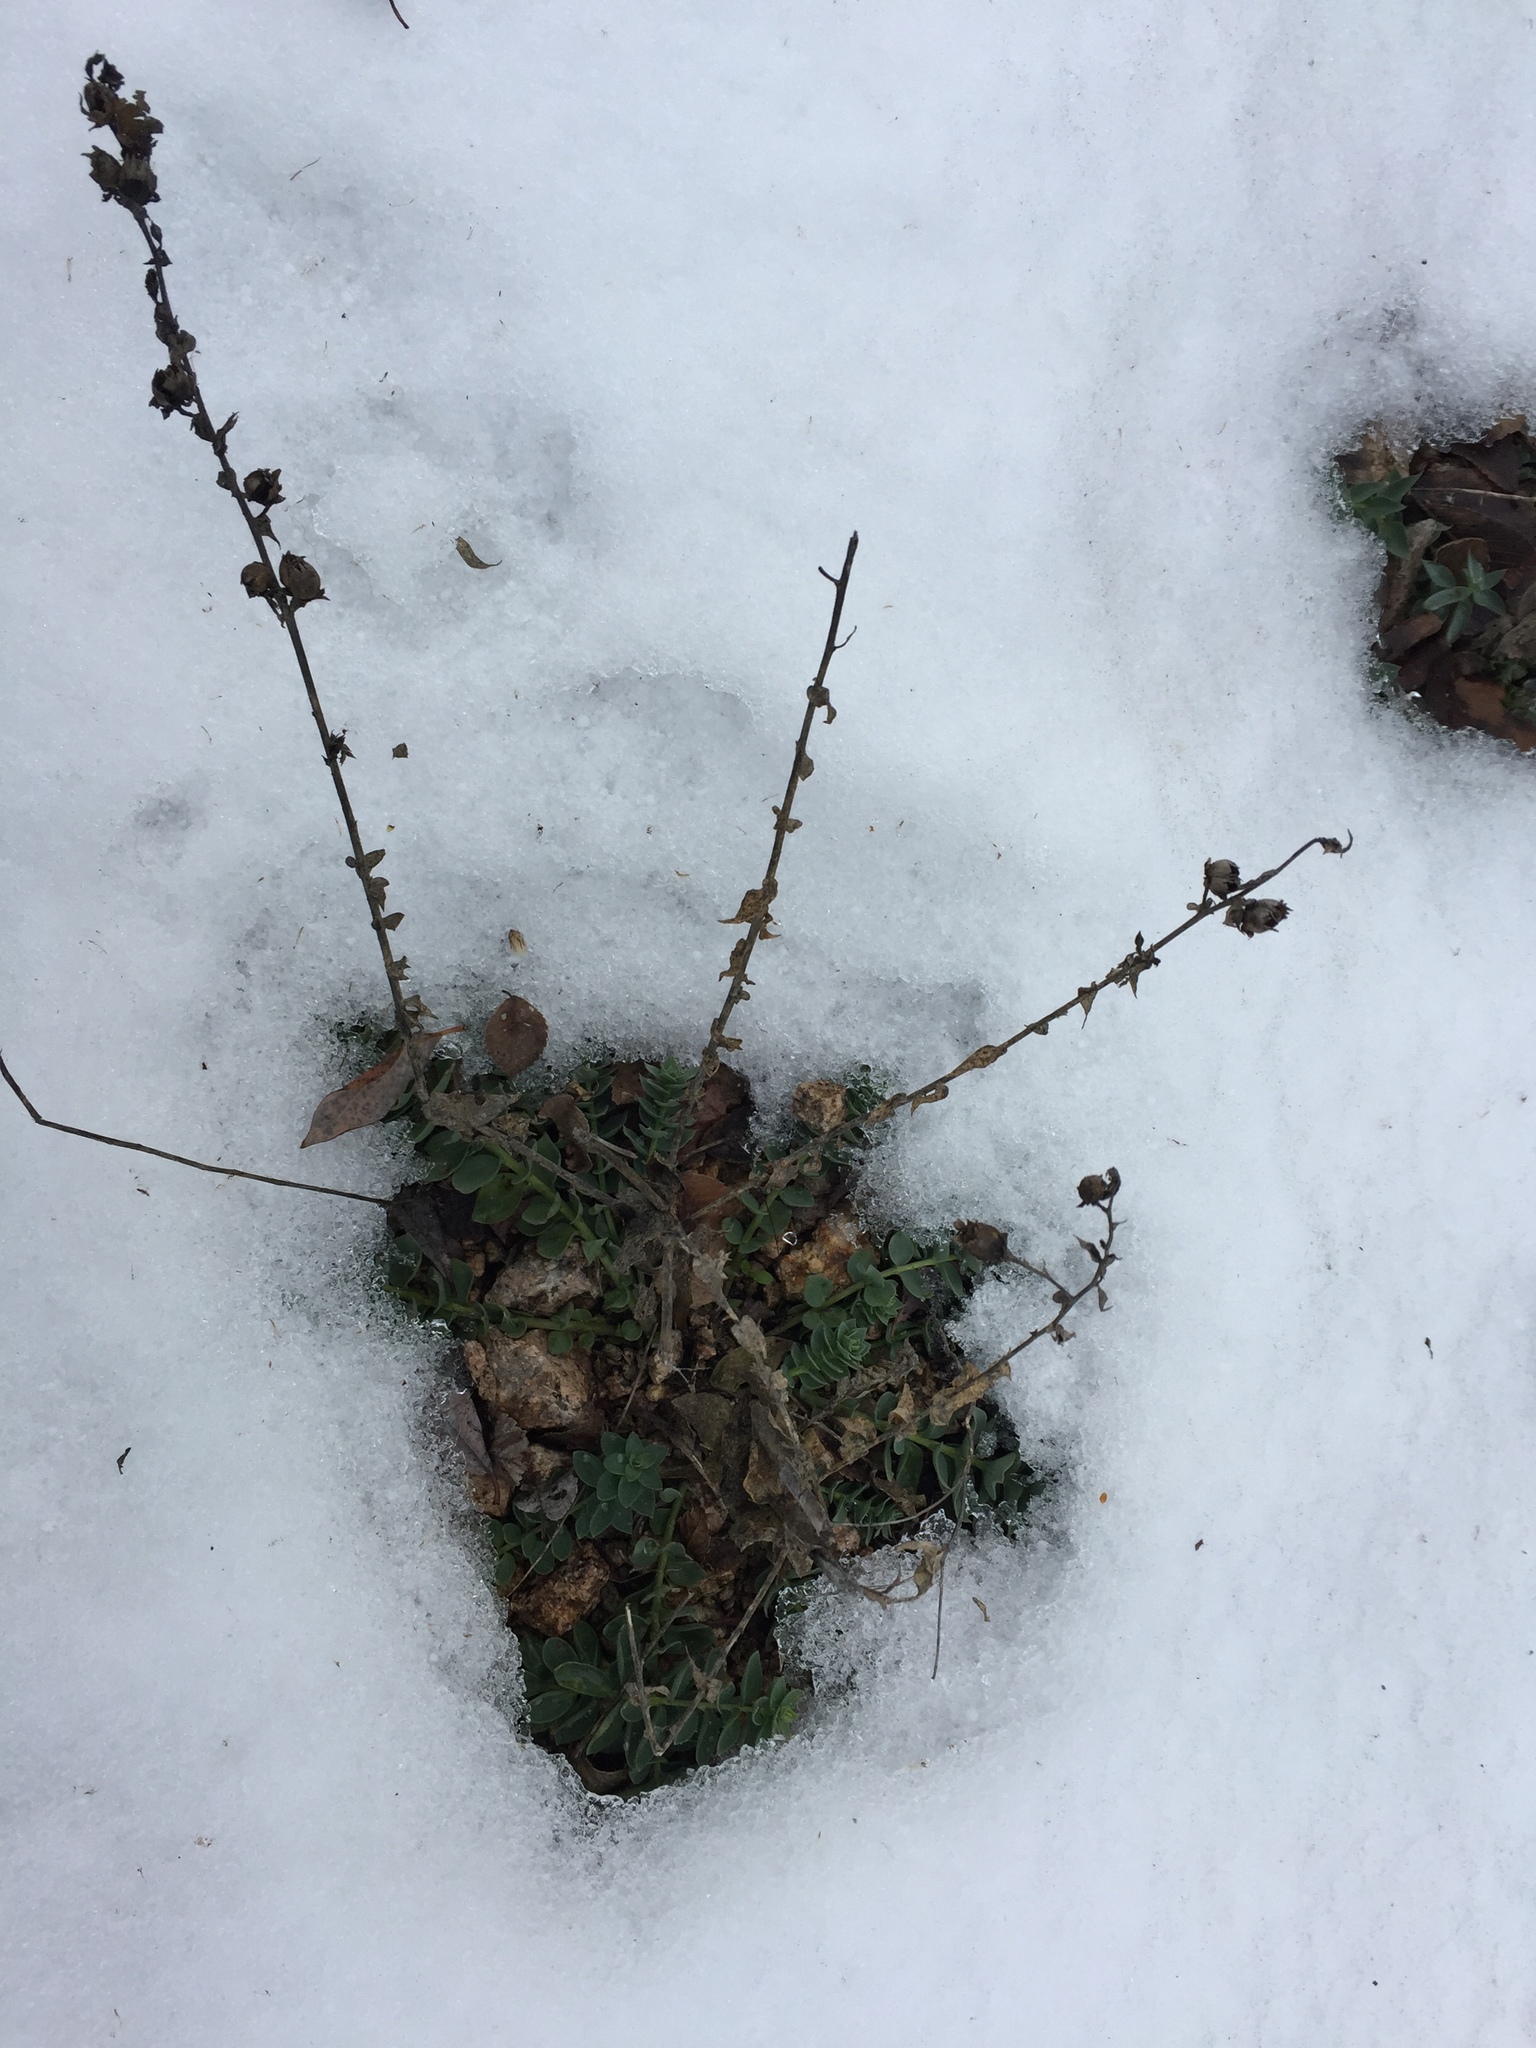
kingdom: Plantae
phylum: Tracheophyta
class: Magnoliopsida
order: Lamiales
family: Plantaginaceae
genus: Linaria
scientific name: Linaria dalmatica
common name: Dalmatian toadflax
